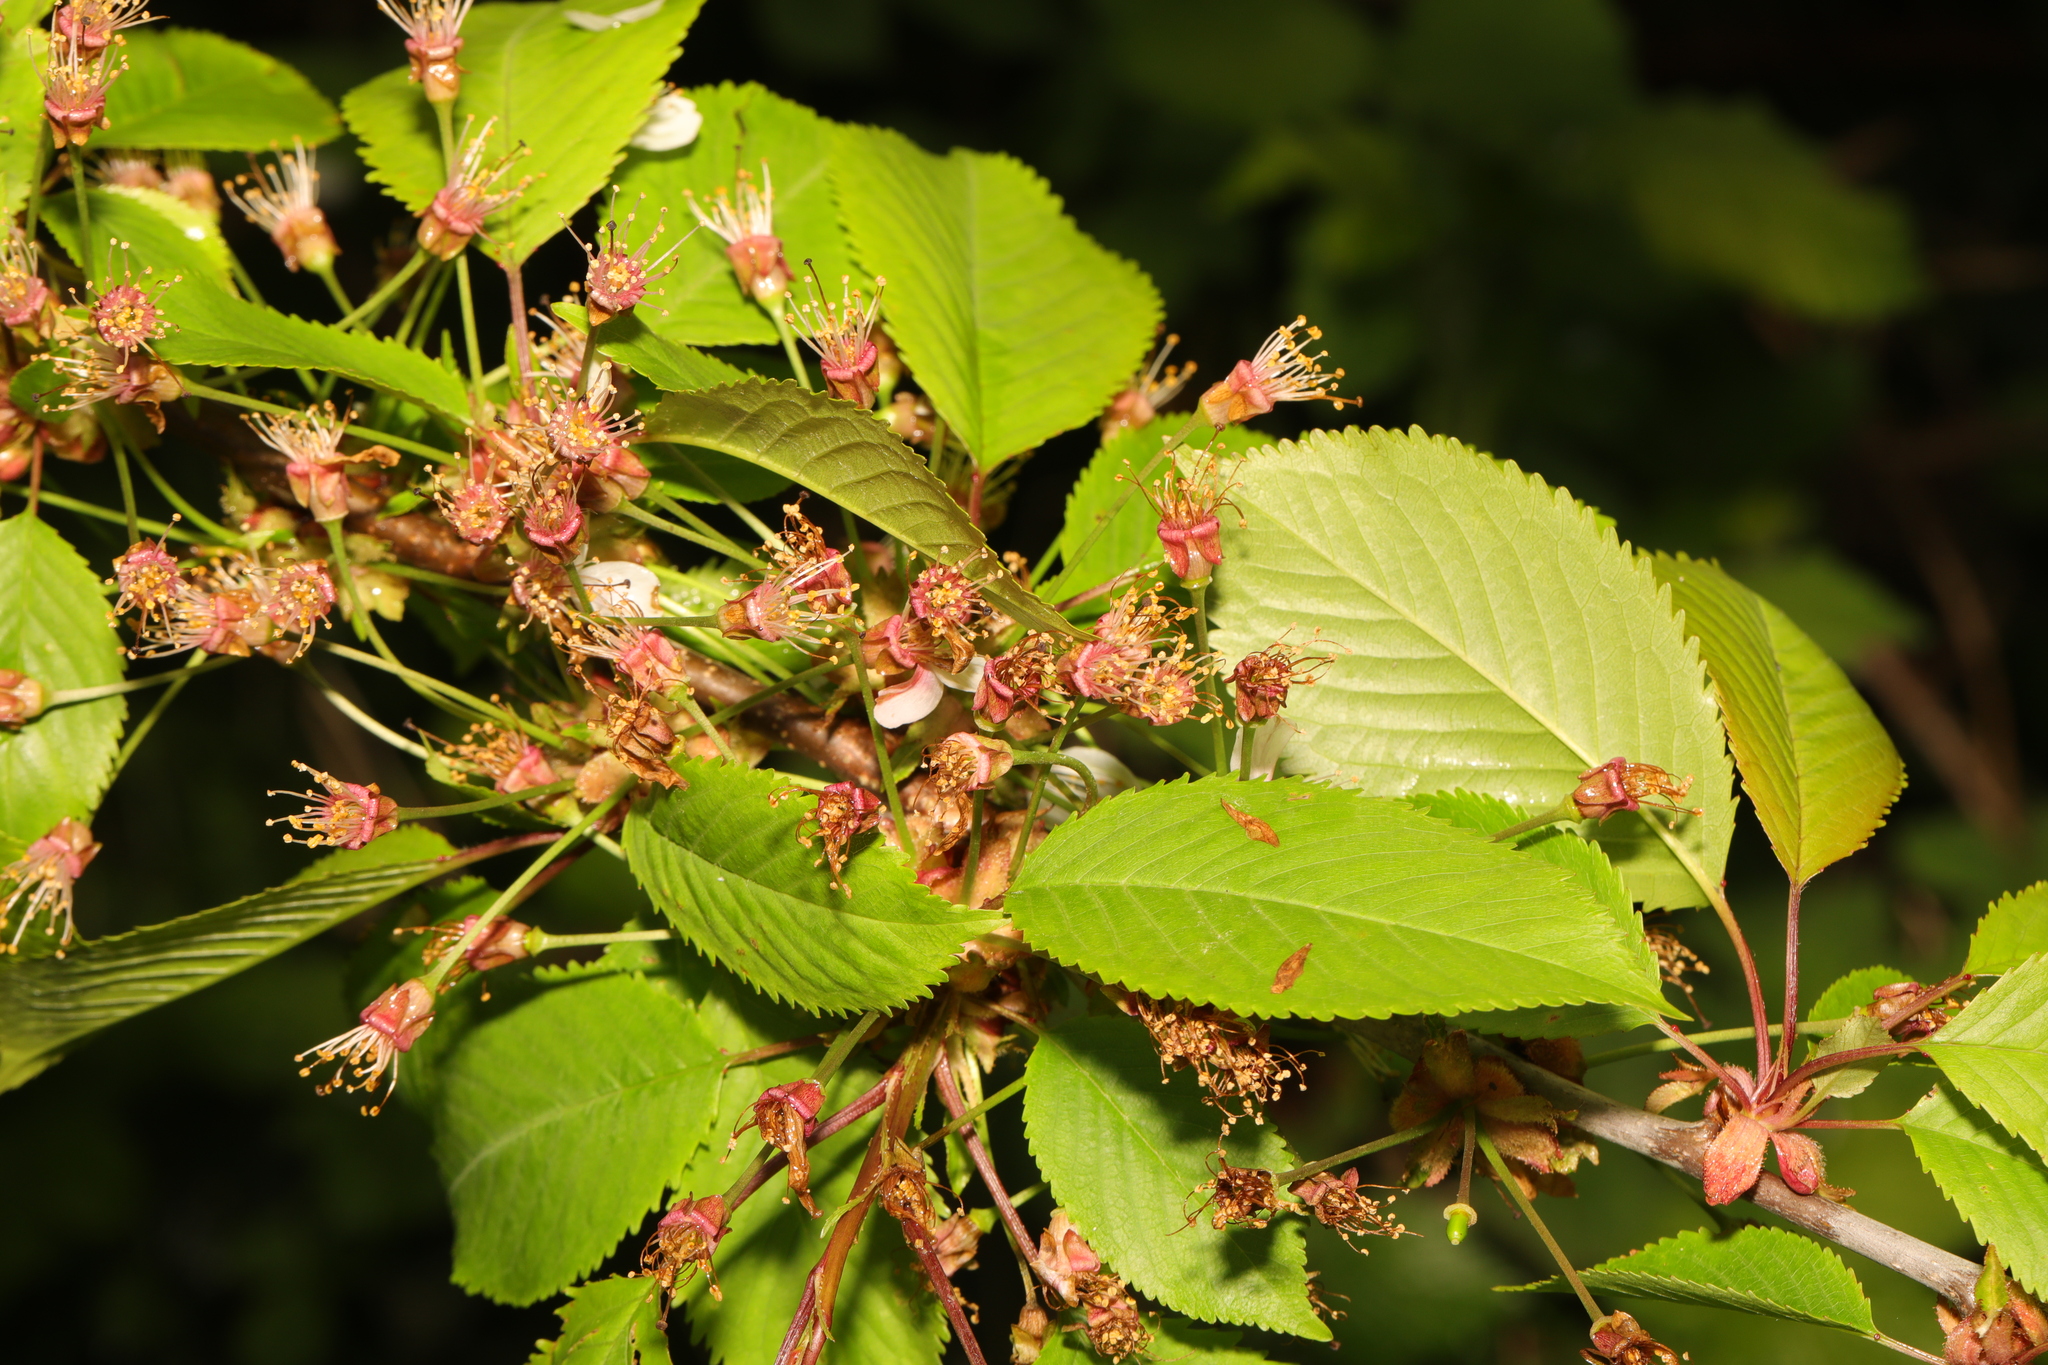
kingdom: Plantae
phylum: Tracheophyta
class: Magnoliopsida
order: Rosales
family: Rosaceae
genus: Prunus
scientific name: Prunus avium
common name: Sweet cherry
